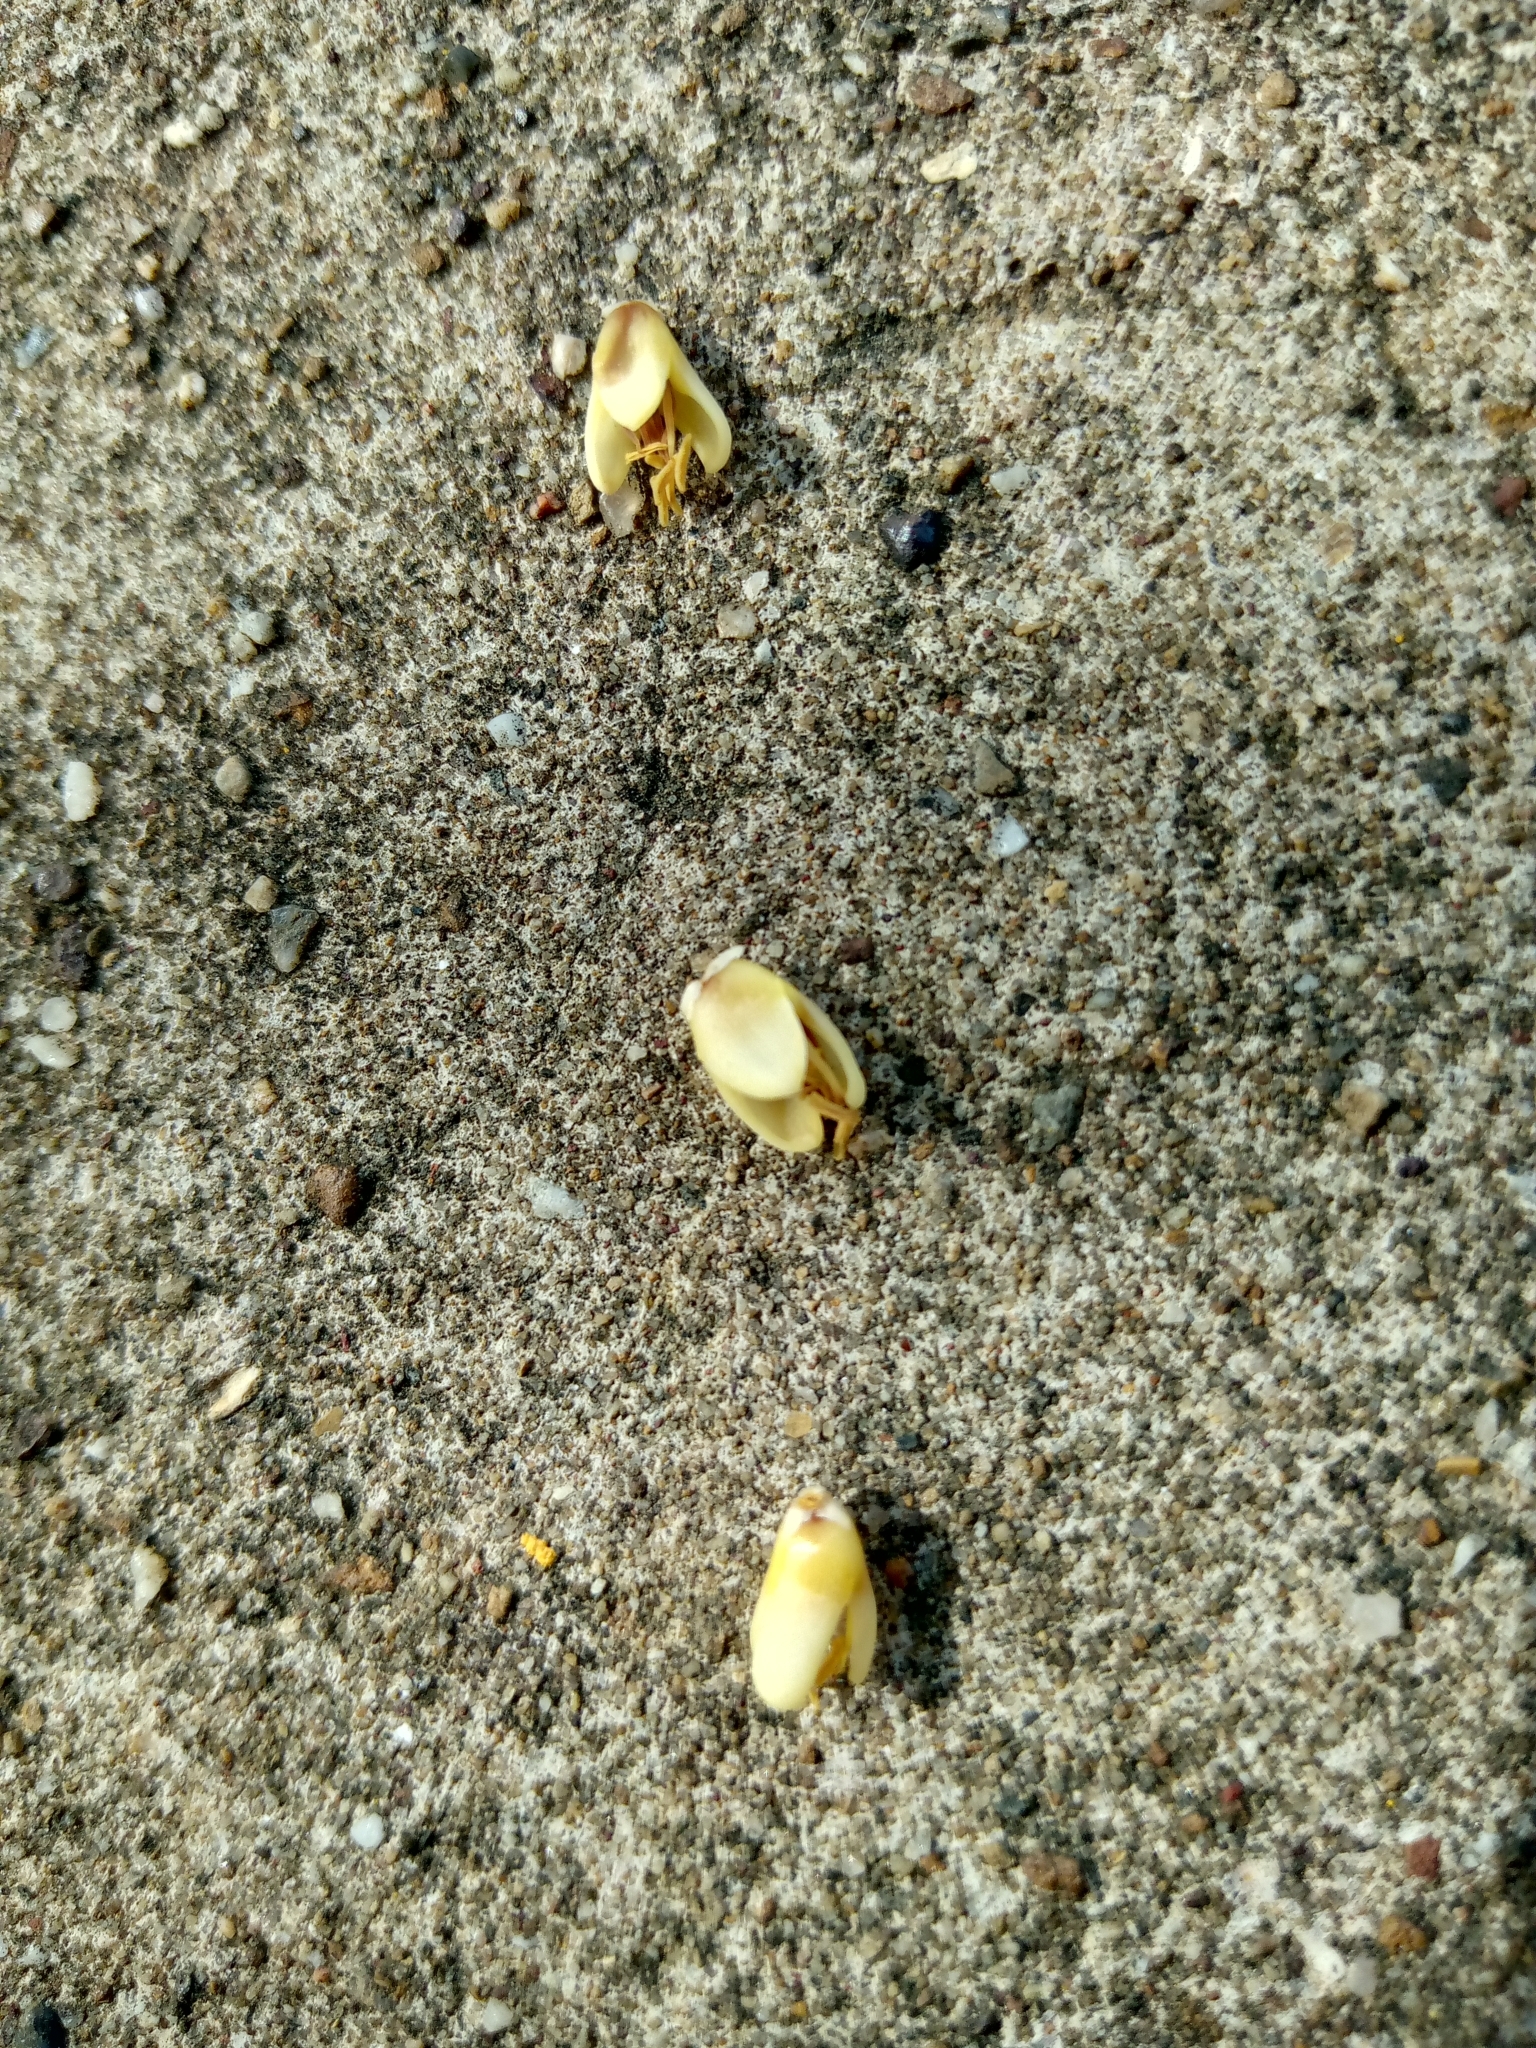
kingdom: Plantae
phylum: Tracheophyta
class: Liliopsida
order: Arecales
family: Arecaceae
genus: Acrocomia
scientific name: Acrocomia aculeata
